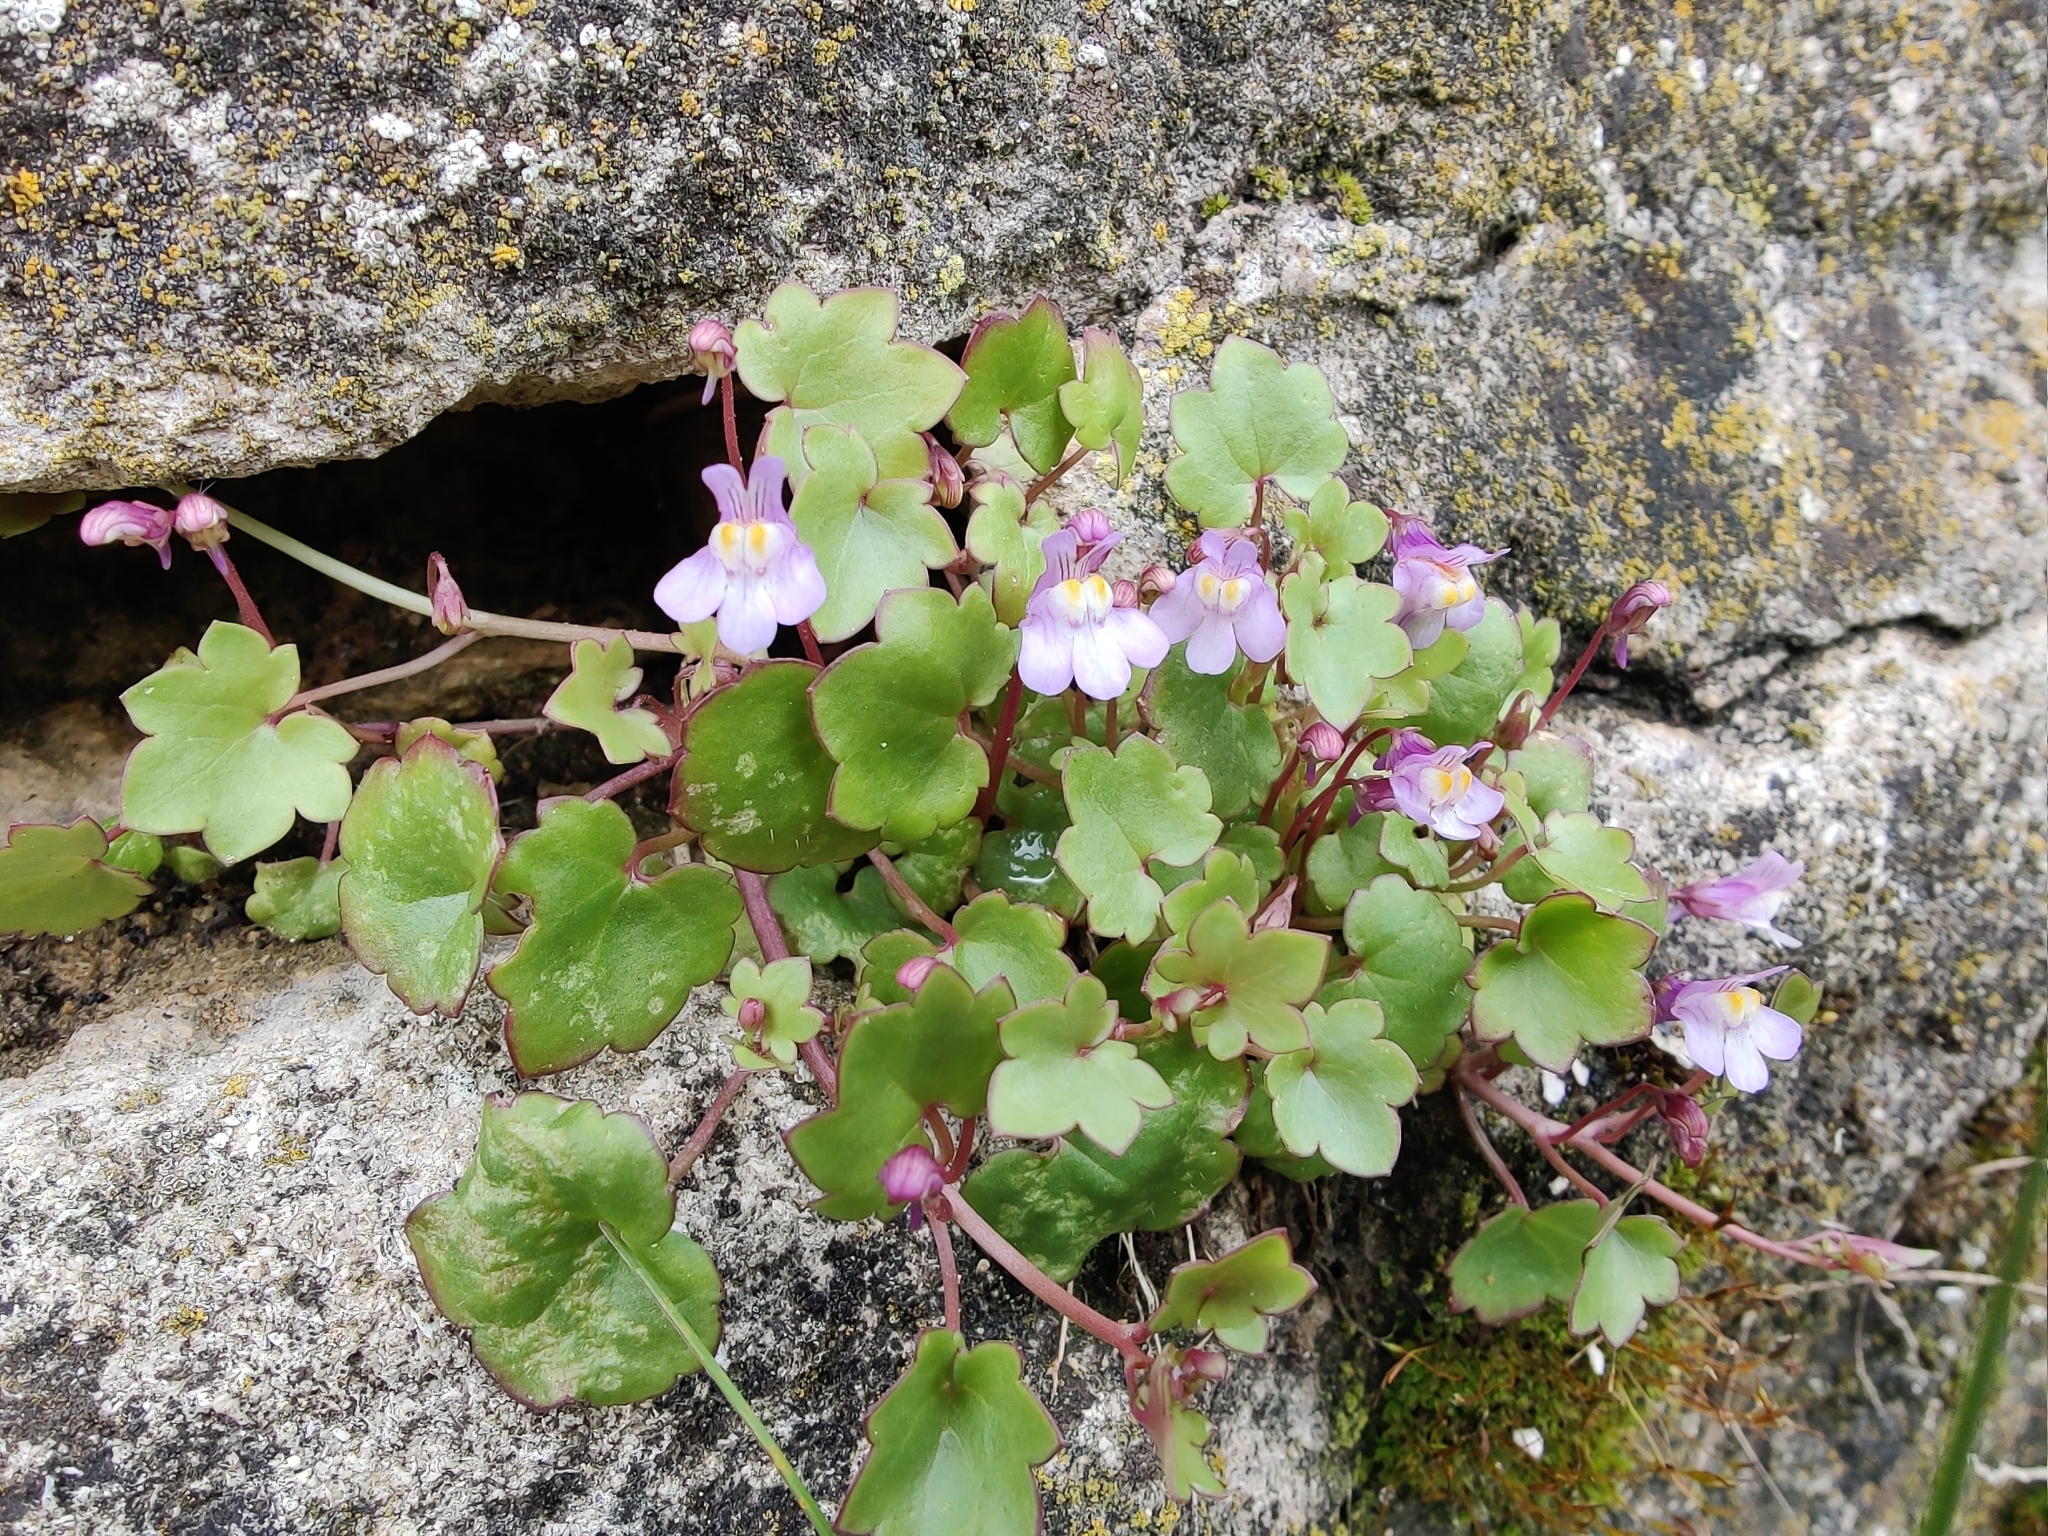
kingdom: Plantae
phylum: Tracheophyta
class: Magnoliopsida
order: Lamiales
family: Plantaginaceae
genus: Cymbalaria
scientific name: Cymbalaria muralis
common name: Ivy-leaved toadflax
